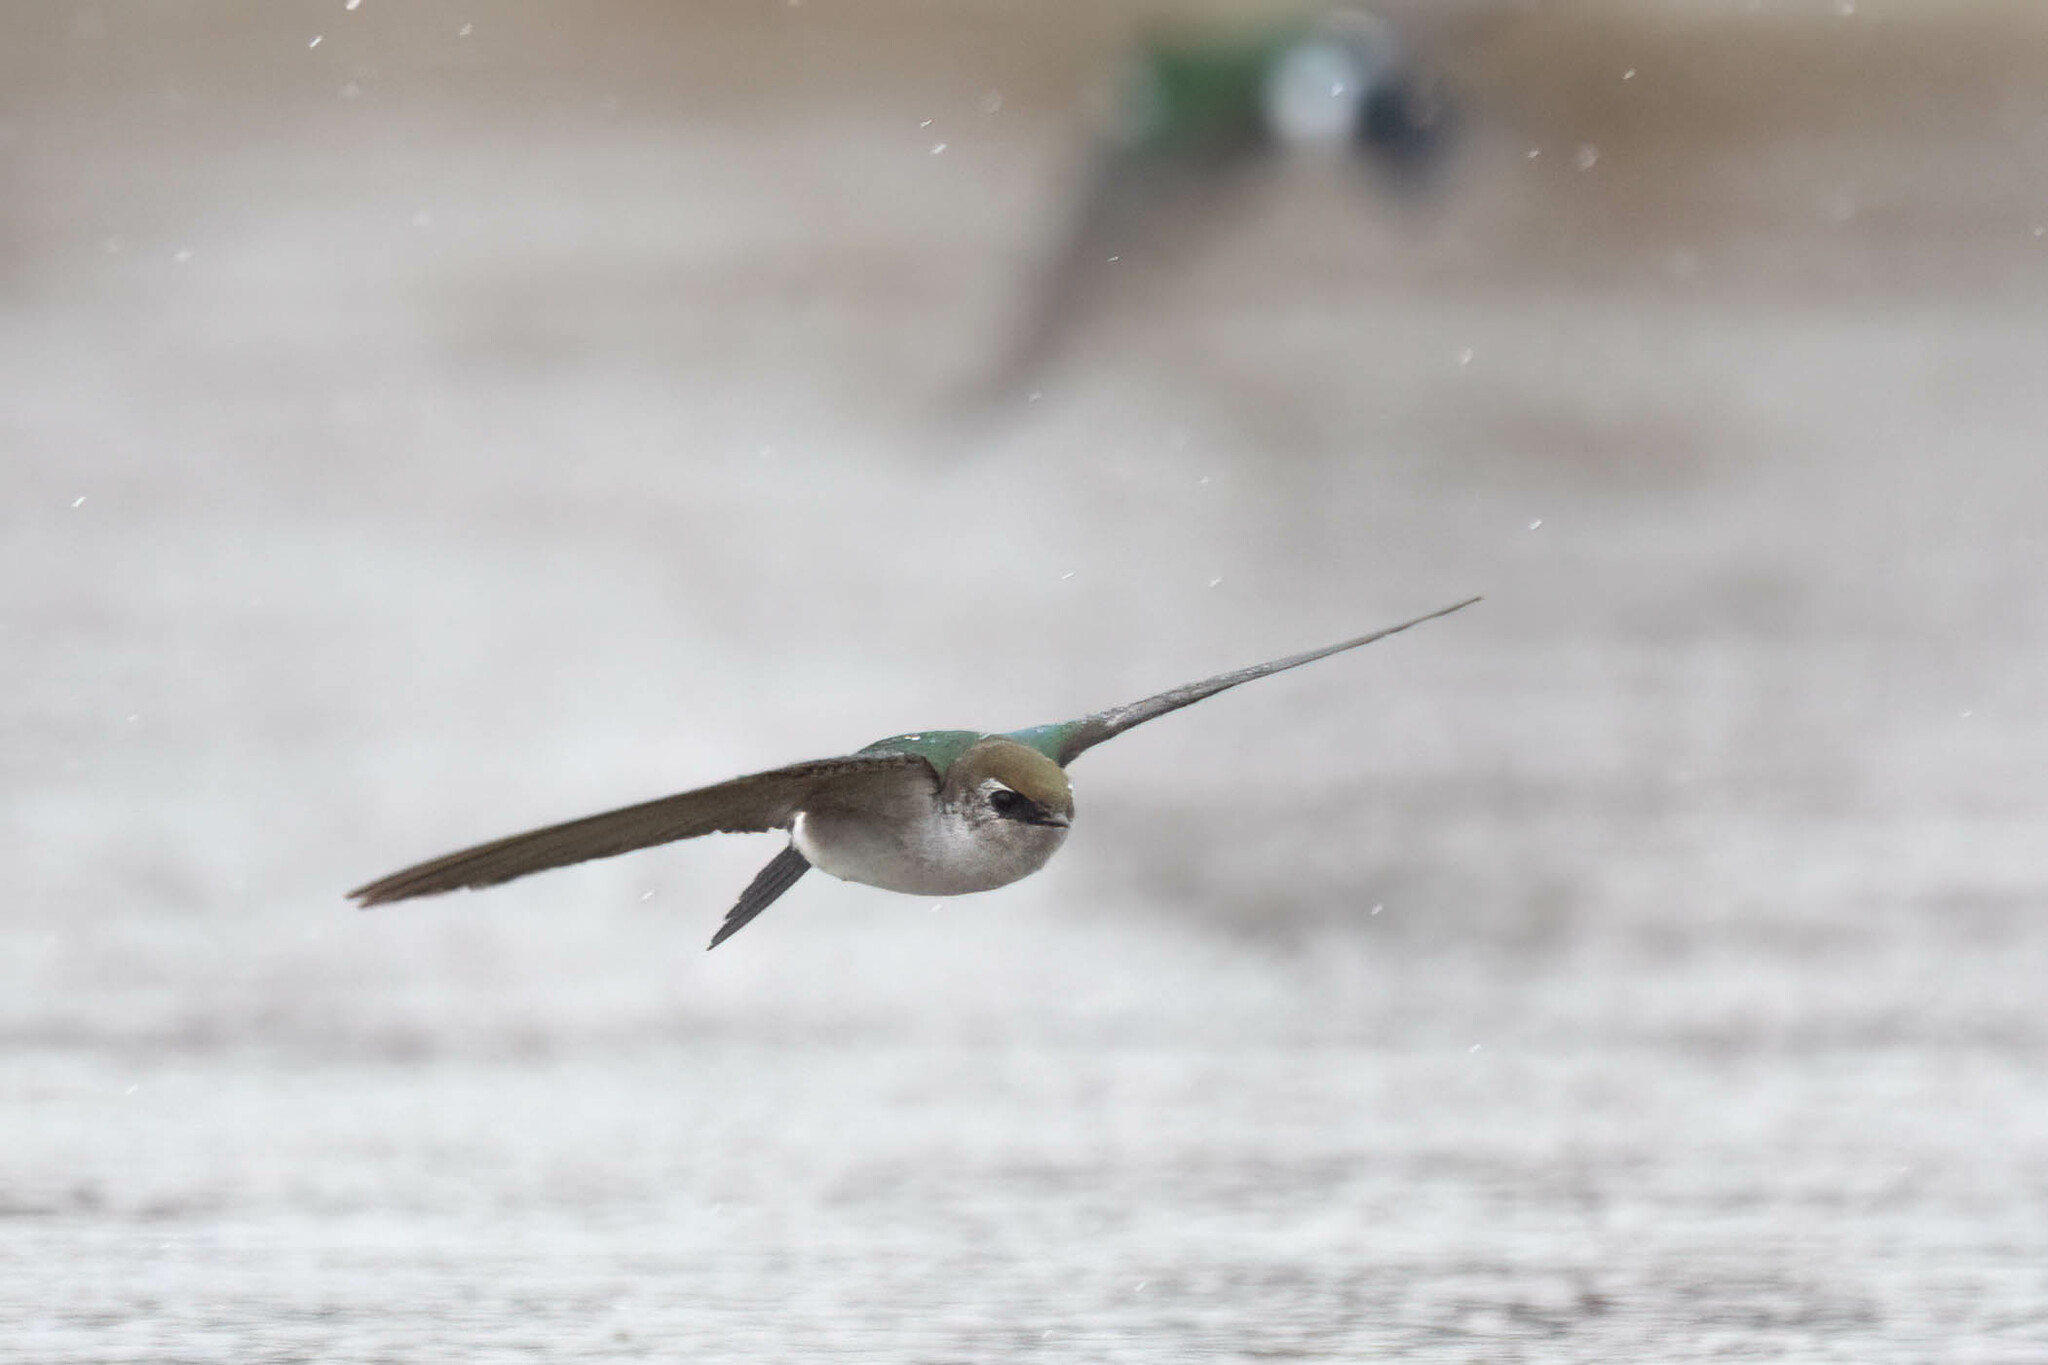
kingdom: Animalia
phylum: Chordata
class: Aves
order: Passeriformes
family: Hirundinidae
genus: Tachycineta
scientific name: Tachycineta thalassina
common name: Violet-green swallow
